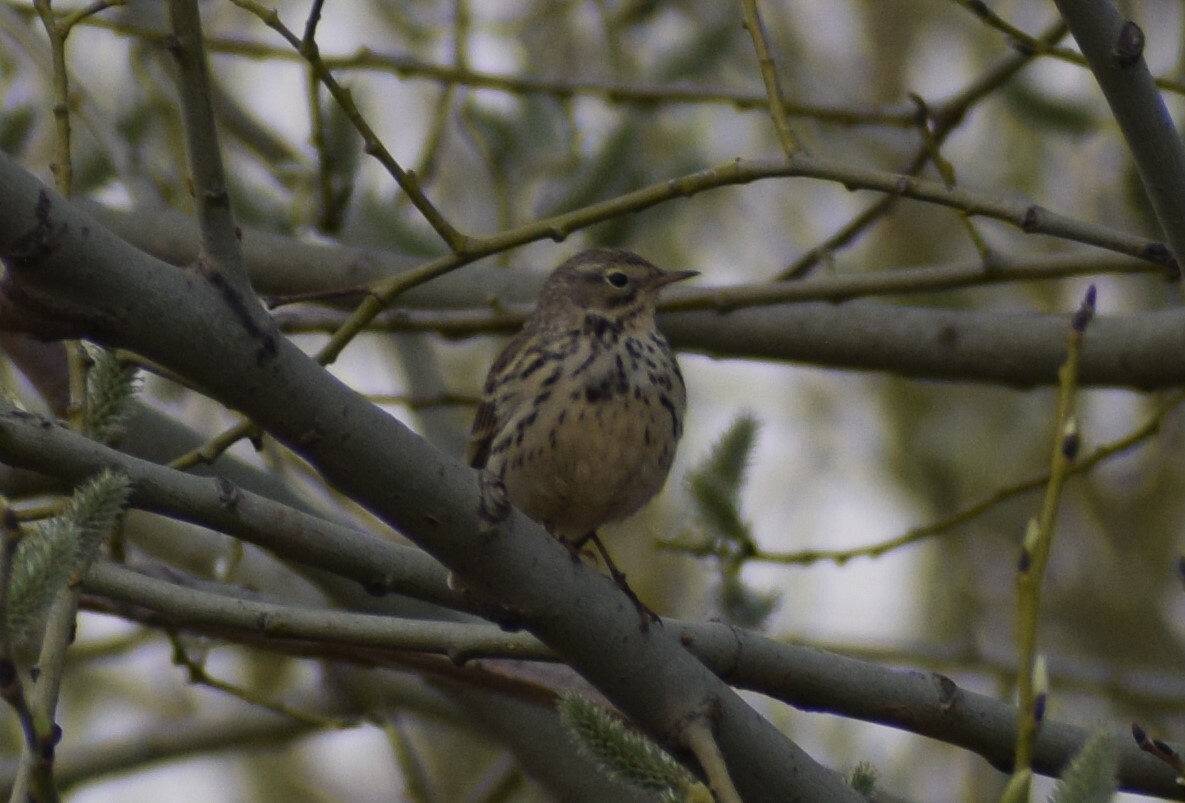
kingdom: Animalia
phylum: Chordata
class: Aves
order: Passeriformes
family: Motacillidae
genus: Anthus
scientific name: Anthus pratensis
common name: Meadow pipit
